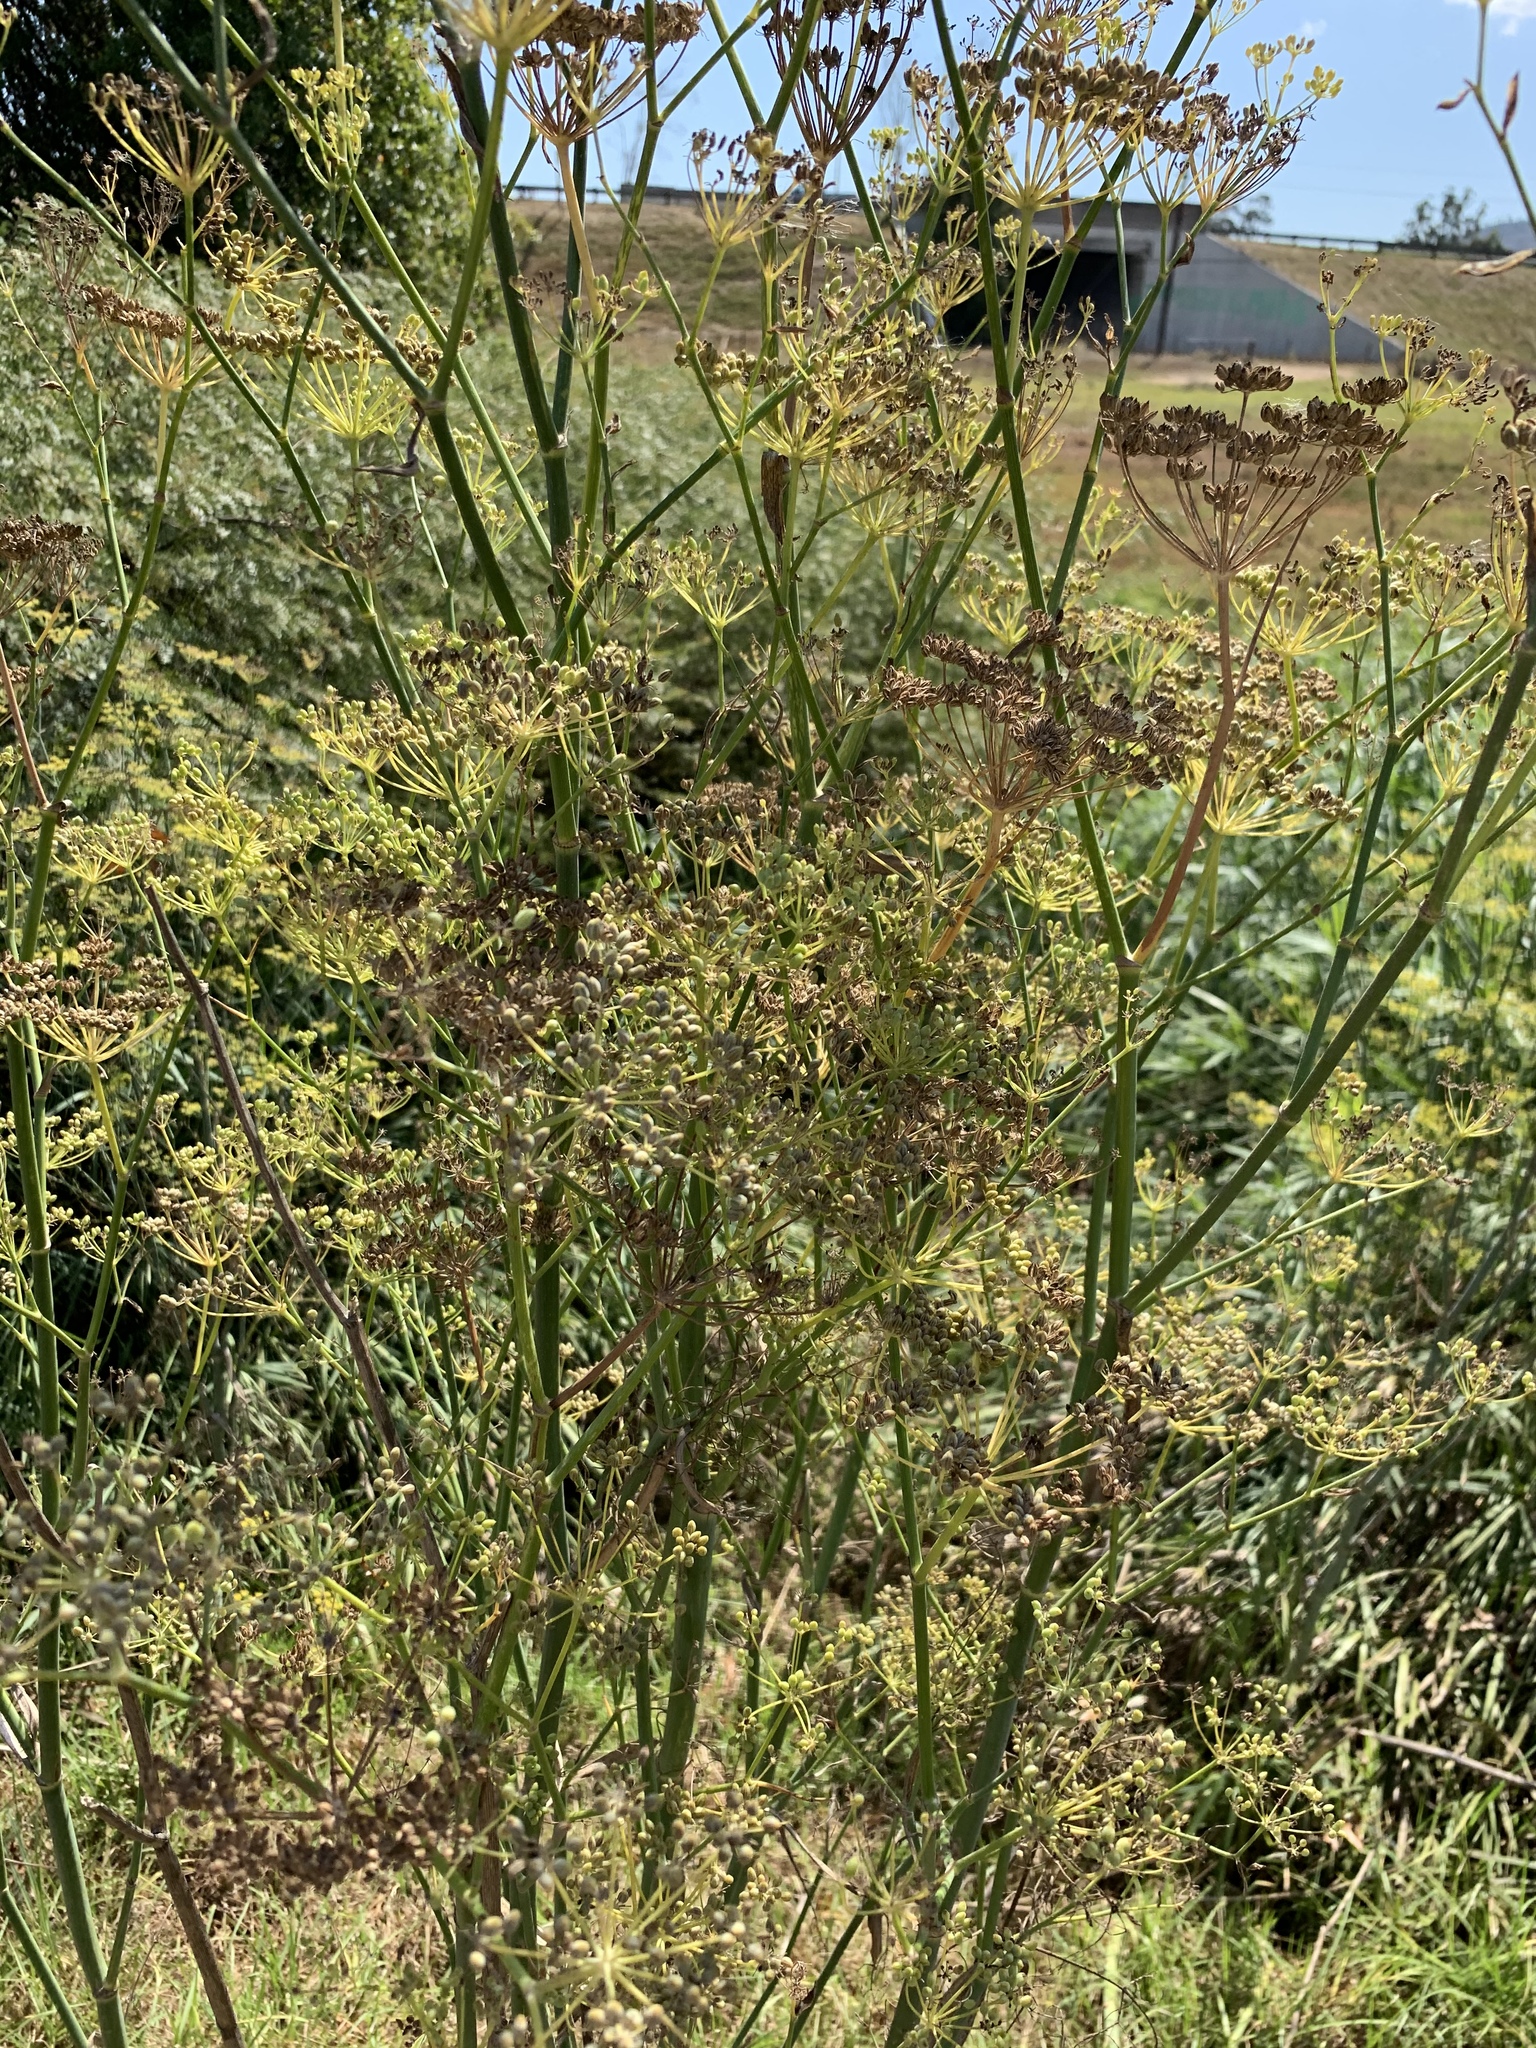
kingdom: Plantae
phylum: Tracheophyta
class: Magnoliopsida
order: Apiales
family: Apiaceae
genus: Foeniculum
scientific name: Foeniculum vulgare
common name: Fennel
